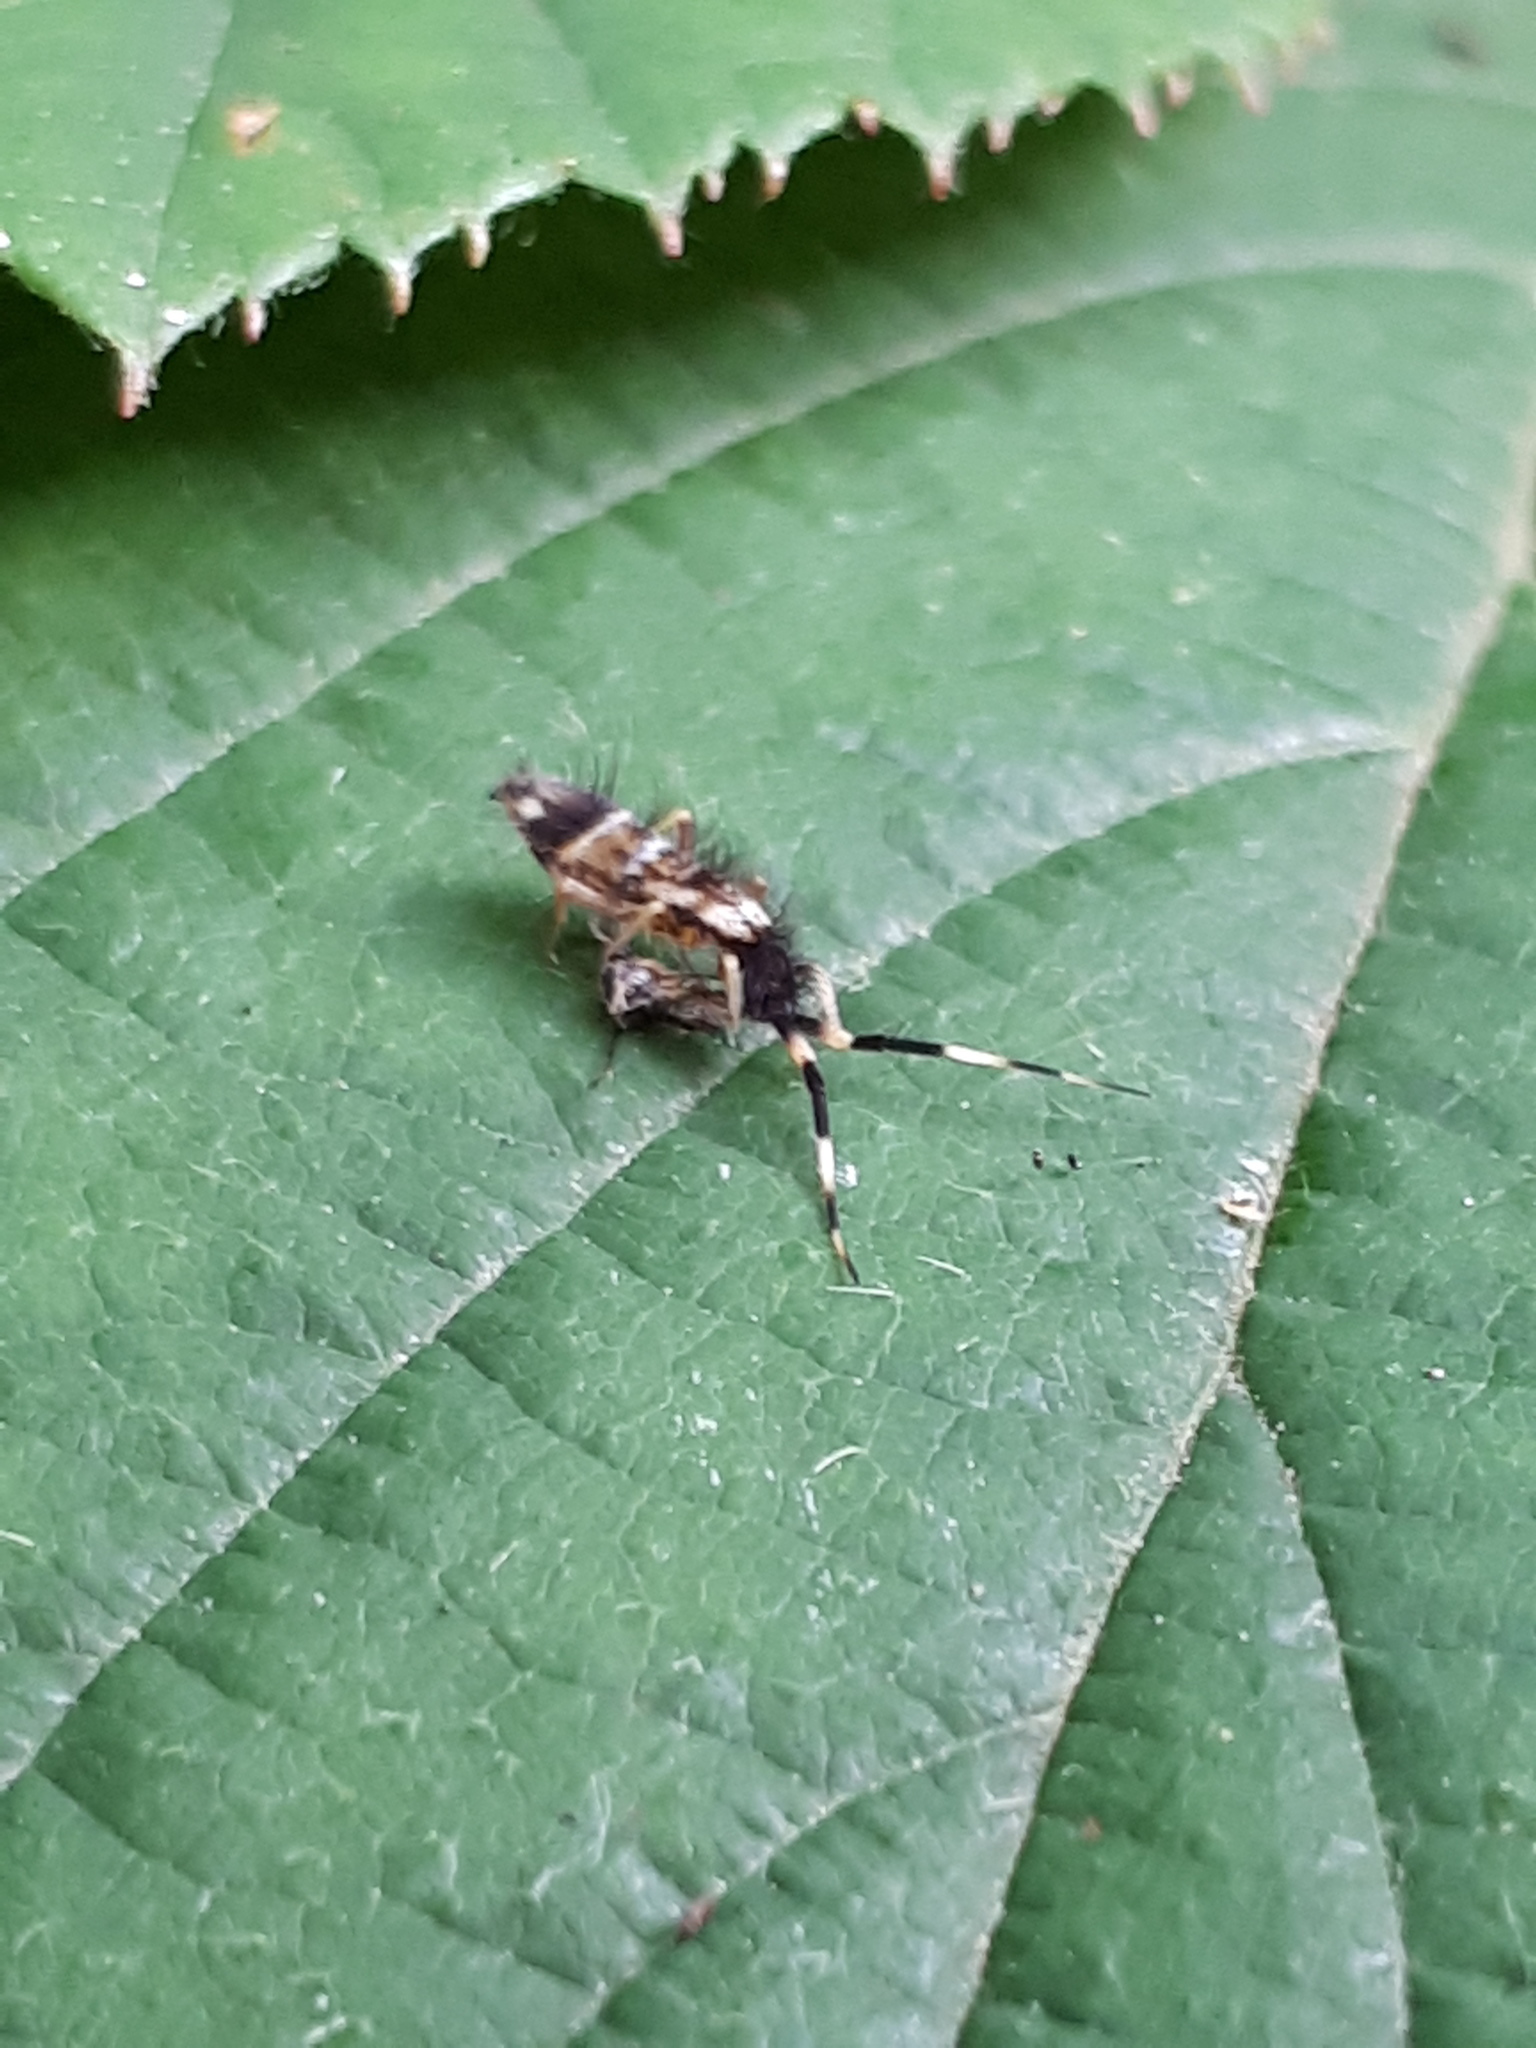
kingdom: Animalia
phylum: Arthropoda
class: Collembola
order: Entomobryomorpha
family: Entomobryidae
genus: Entomobrya
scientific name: Entomobrya nivalis
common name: Cosmopolitan springtail
